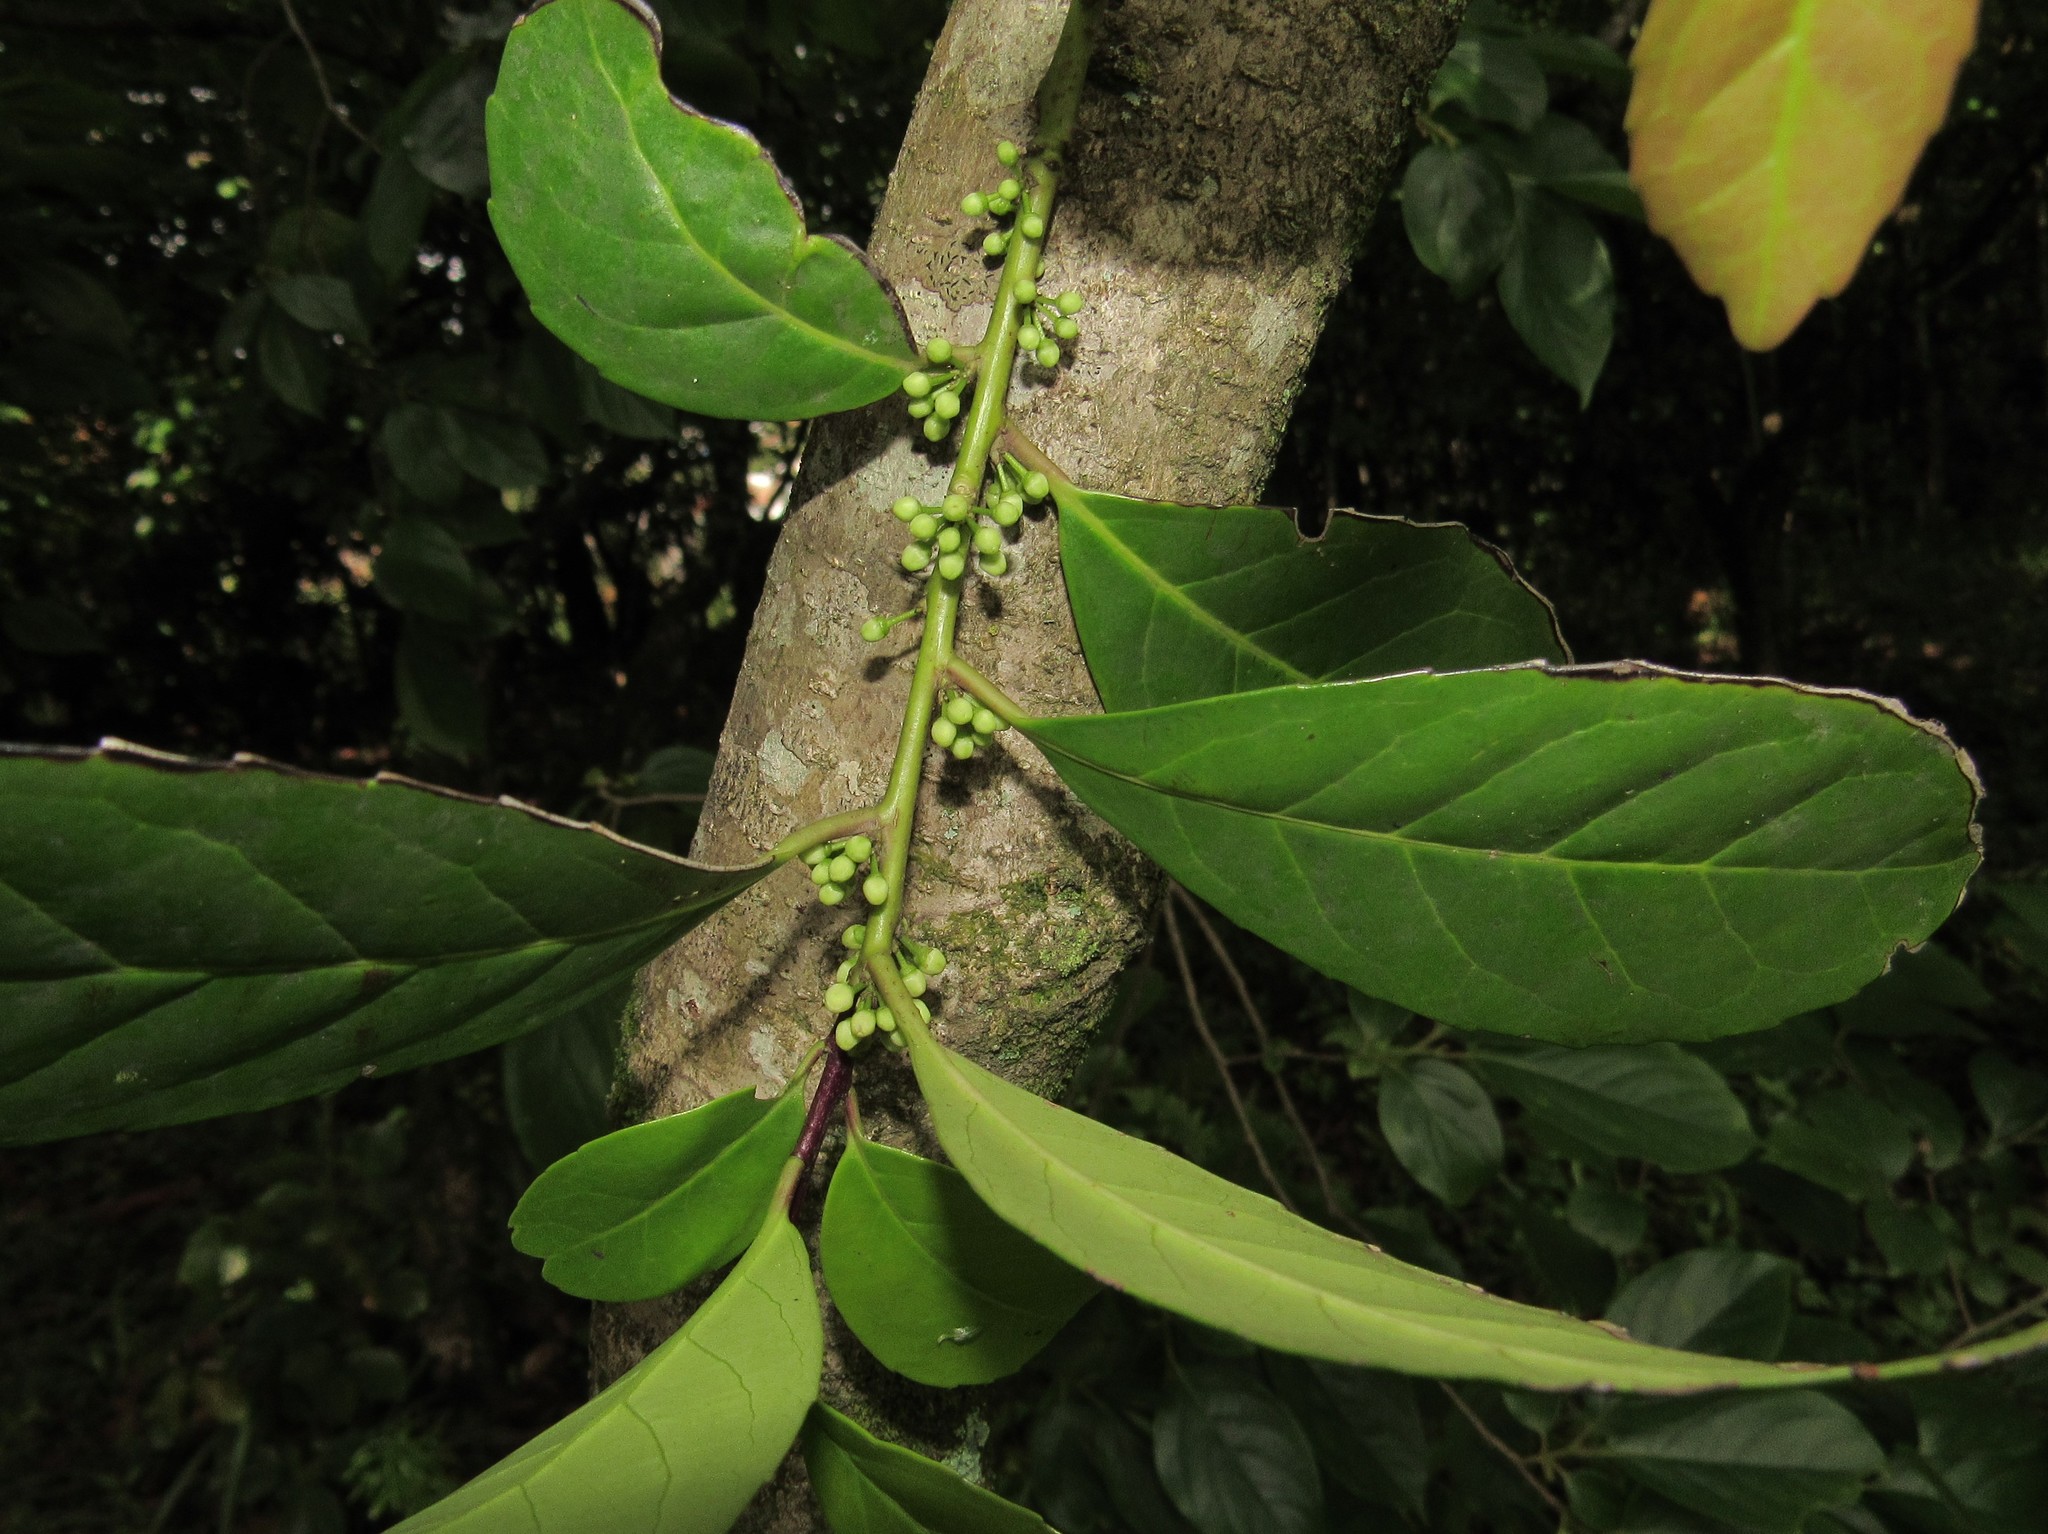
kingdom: Plantae
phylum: Tracheophyta
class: Magnoliopsida
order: Aquifoliales
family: Aquifoliaceae
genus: Ilex
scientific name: Ilex paraguariensis
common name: Paraguay tea
